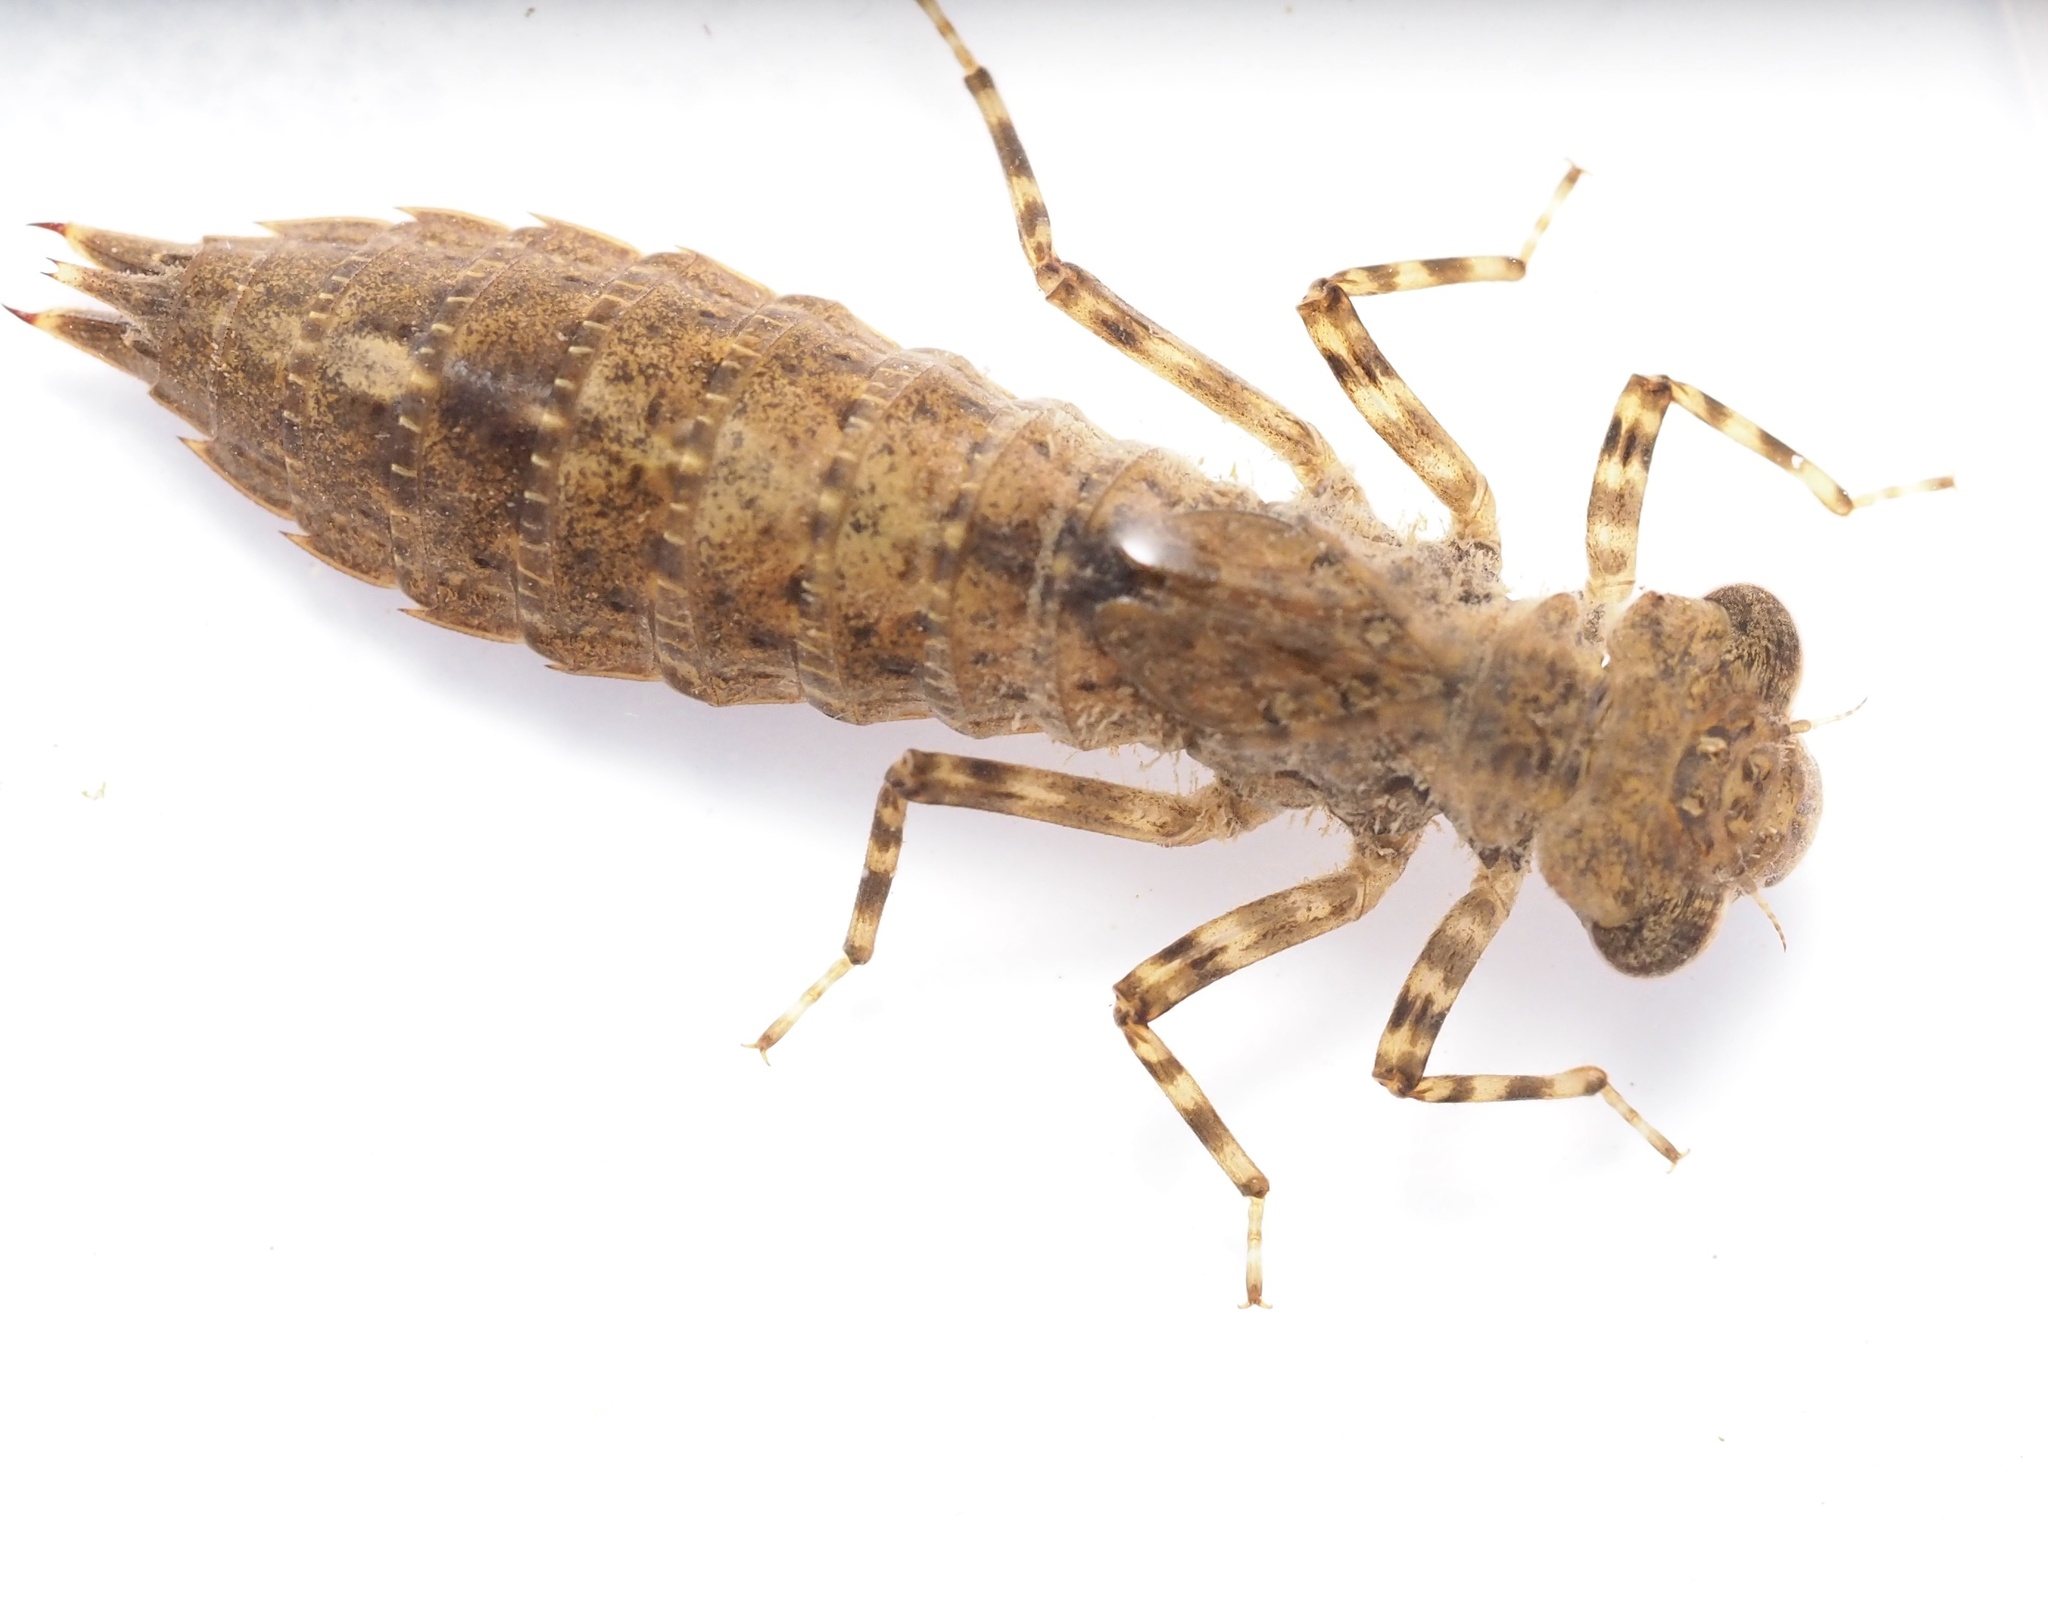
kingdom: Animalia
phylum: Arthropoda
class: Insecta
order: Odonata
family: Aeshnidae
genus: Aeschnophlebia
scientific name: Aeschnophlebia
